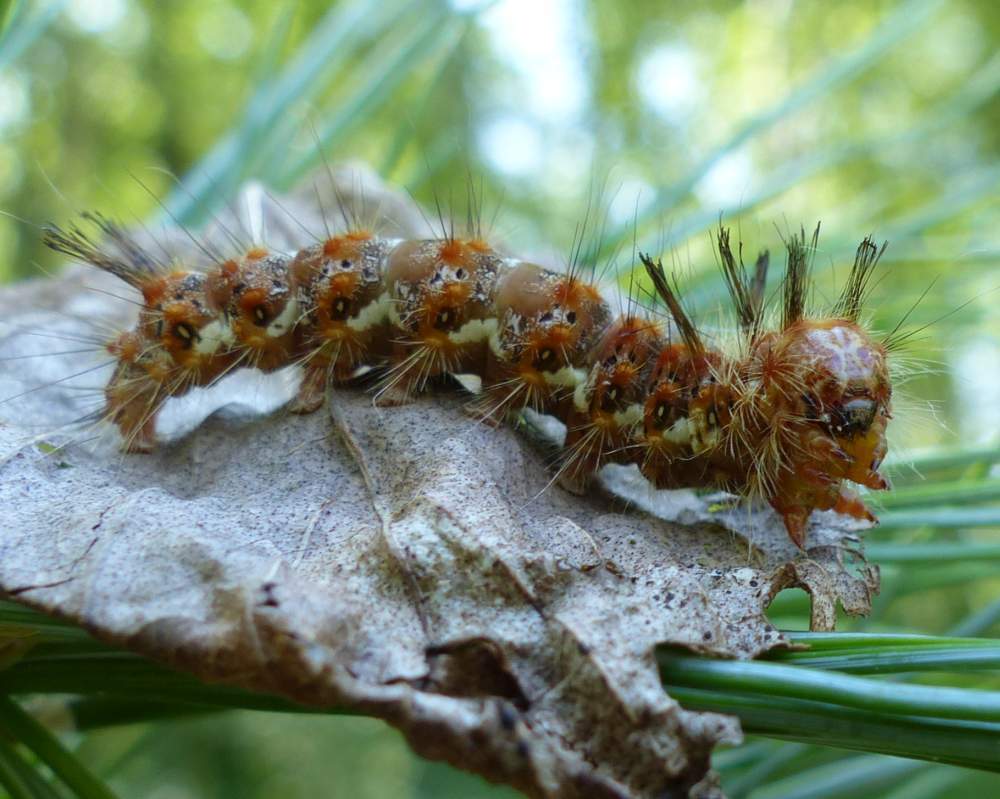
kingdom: Animalia
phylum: Arthropoda
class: Insecta
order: Lepidoptera
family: Noctuidae
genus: Panthea
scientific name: Panthea furcilla
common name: Eastern panthea moth
